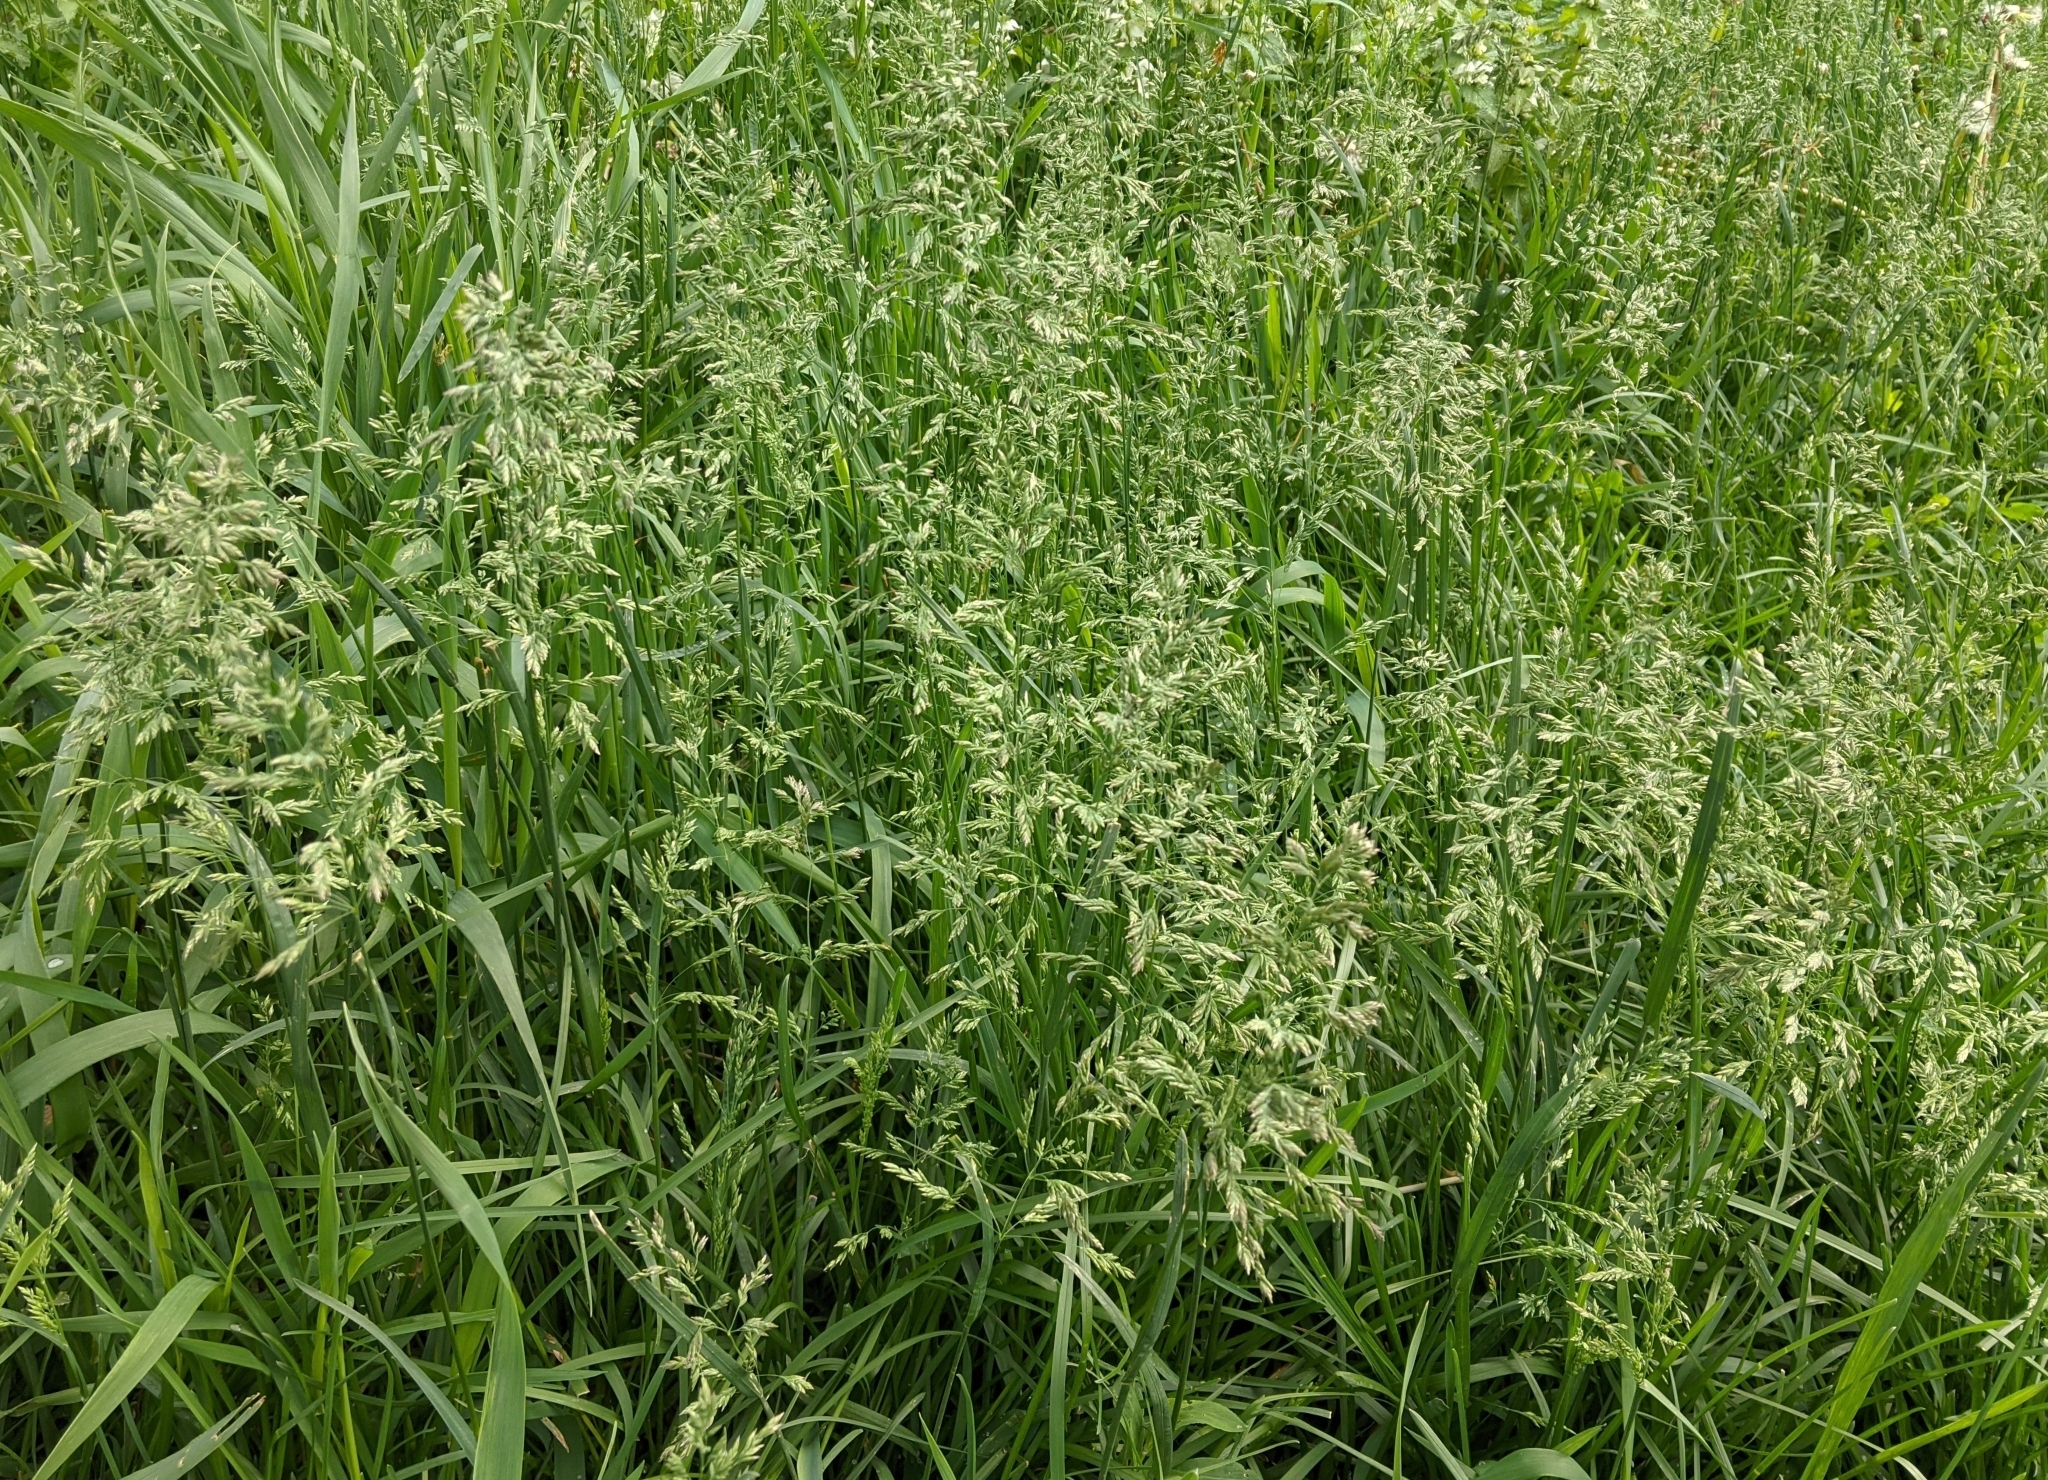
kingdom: Plantae
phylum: Tracheophyta
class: Liliopsida
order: Poales
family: Poaceae
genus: Poa
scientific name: Poa pratensis
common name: Kentucky bluegrass
